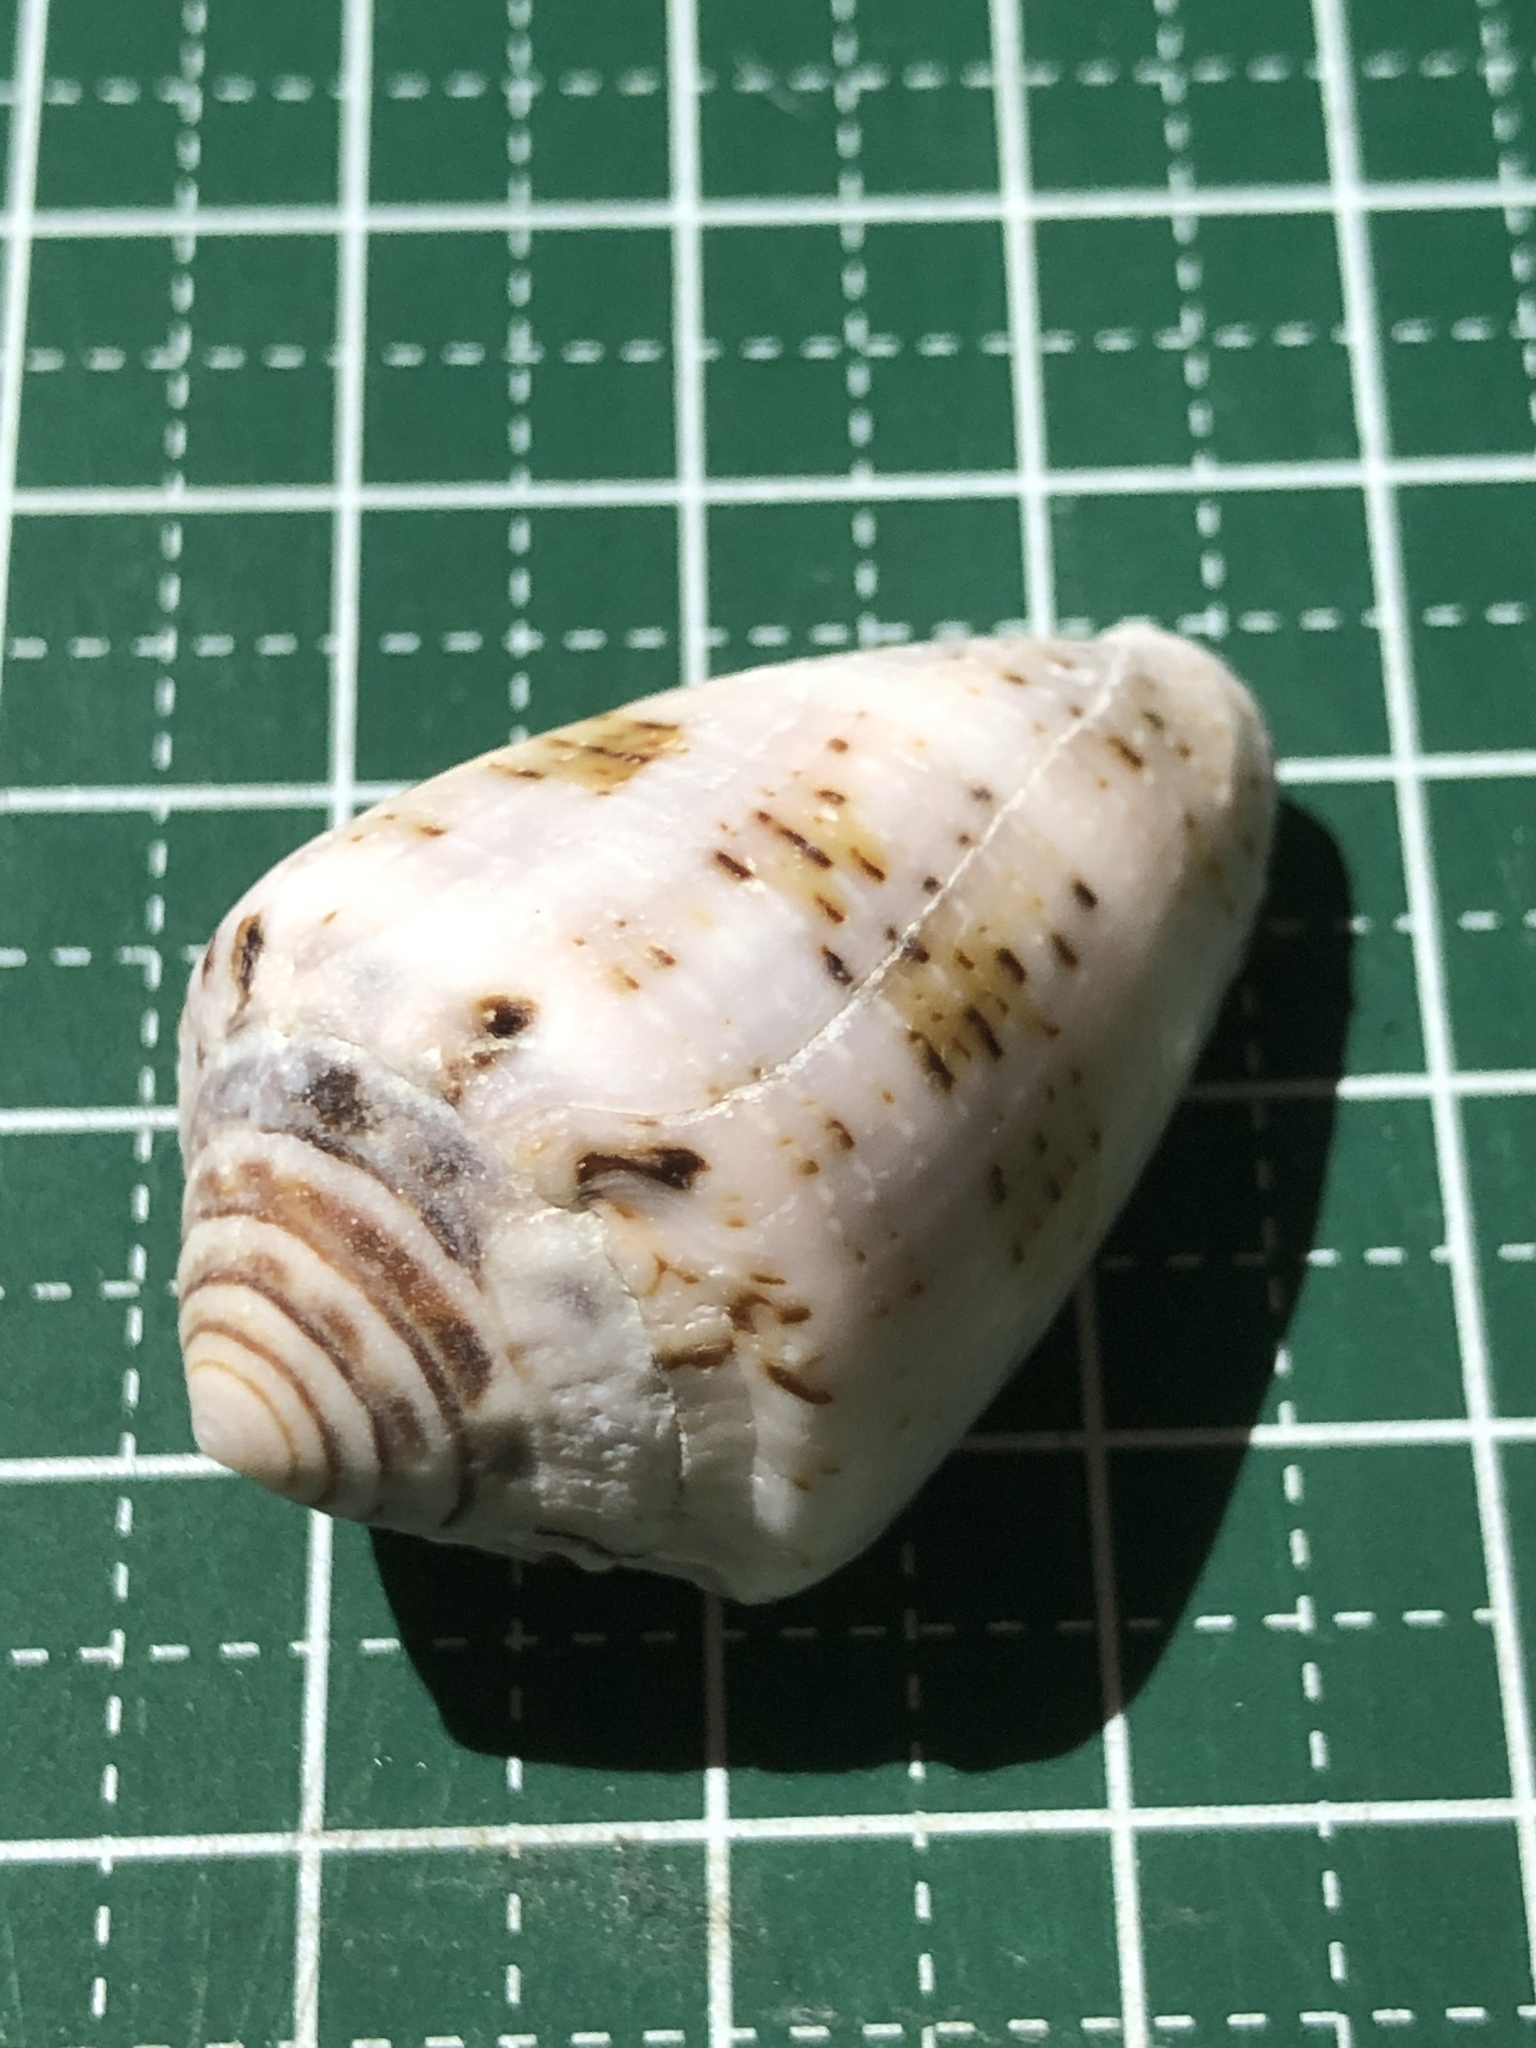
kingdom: Animalia
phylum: Mollusca
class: Gastropoda
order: Neogastropoda
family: Conidae
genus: Conus
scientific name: Conus coronatus
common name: Coronated cone
